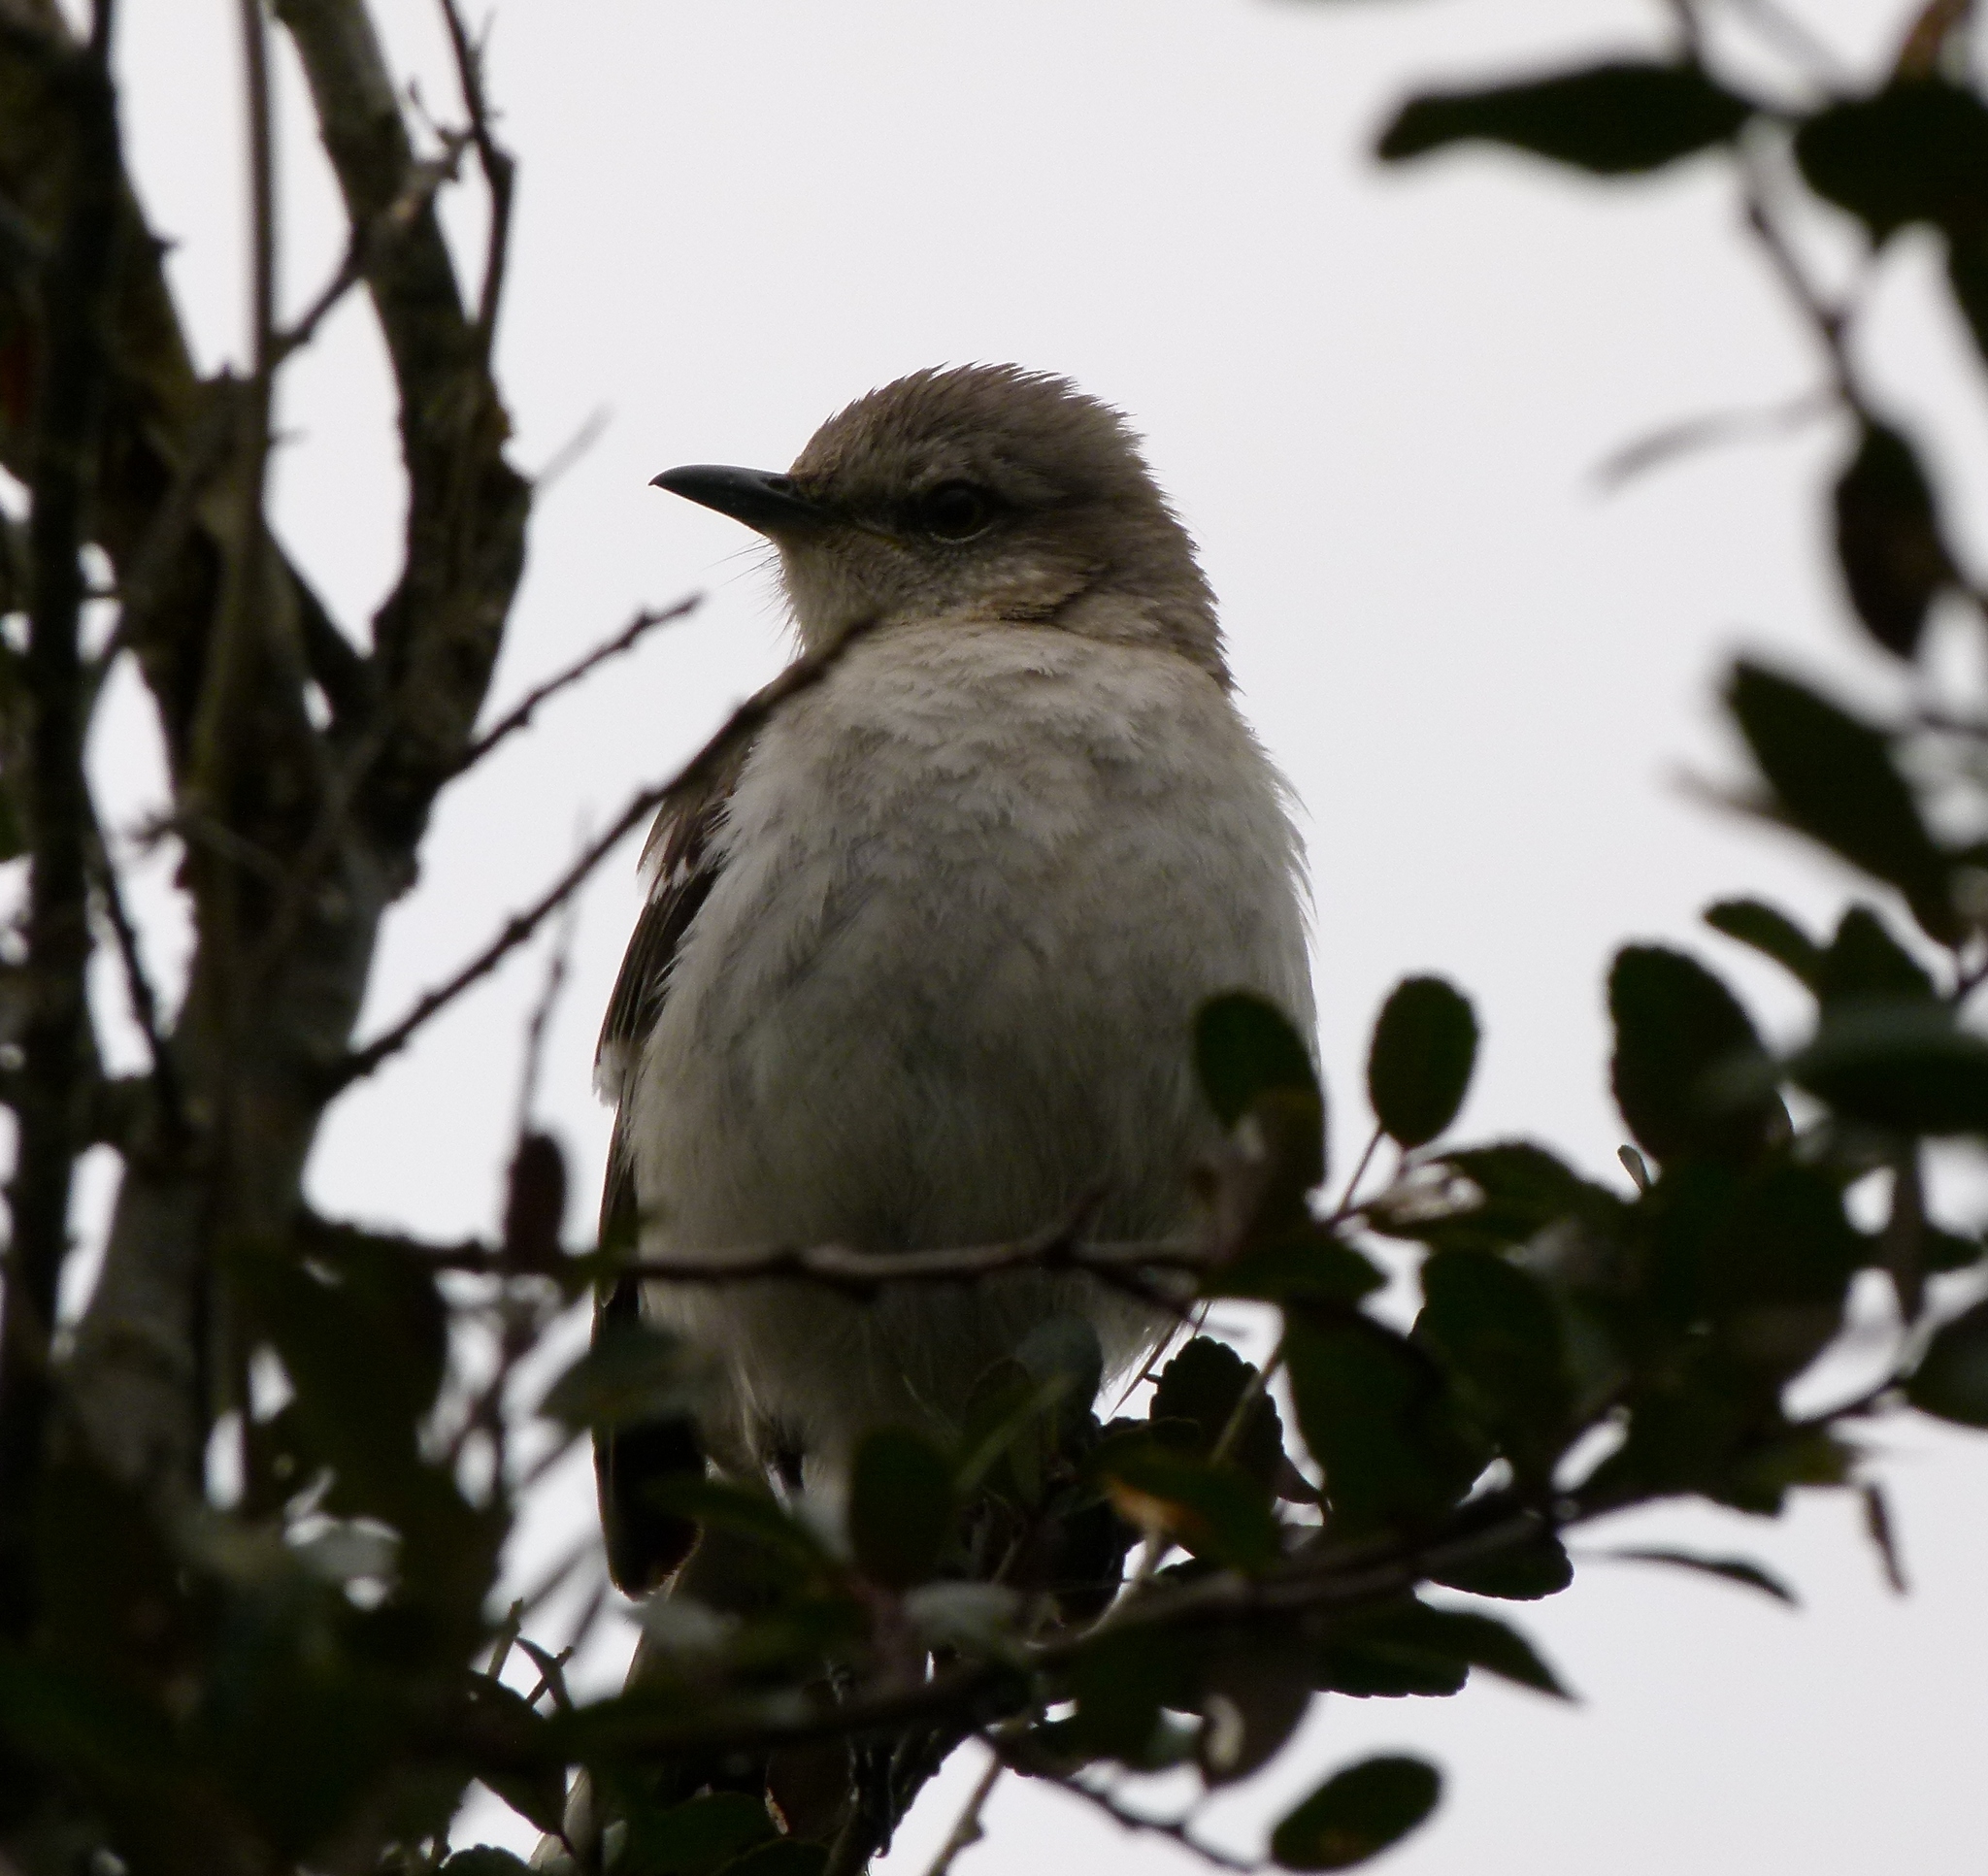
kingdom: Animalia
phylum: Chordata
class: Aves
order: Passeriformes
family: Mimidae
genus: Mimus
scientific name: Mimus polyglottos
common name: Northern mockingbird
